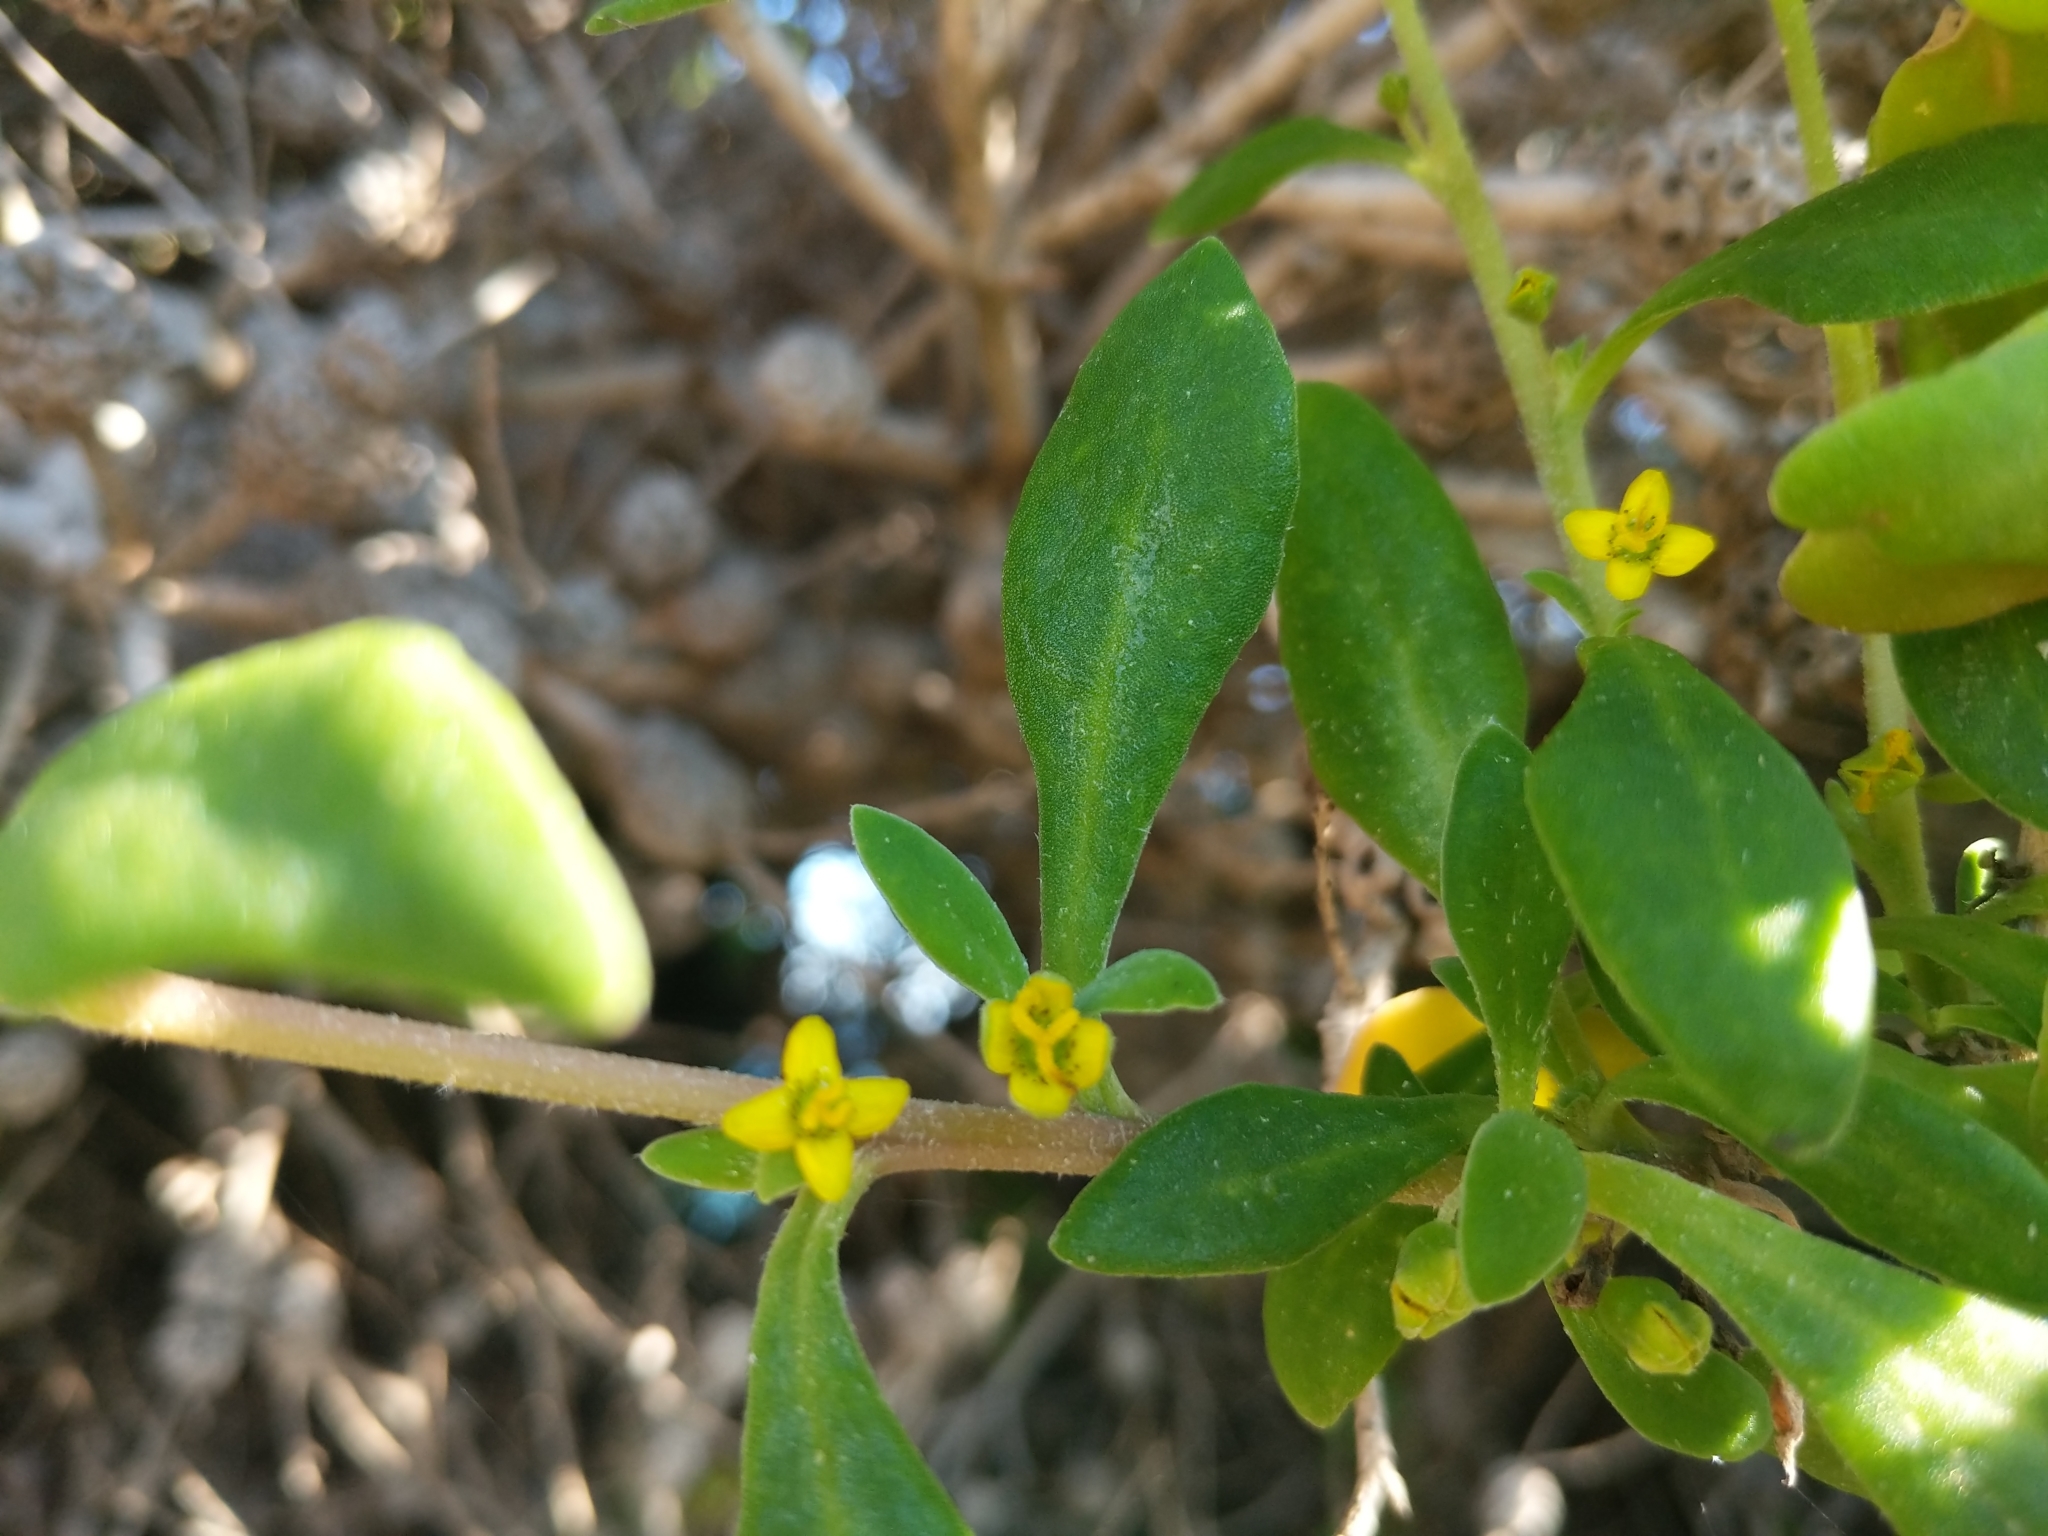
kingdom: Plantae
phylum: Tracheophyta
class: Magnoliopsida
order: Caryophyllales
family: Aizoaceae
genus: Tetragonia
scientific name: Tetragonia implexicoma
